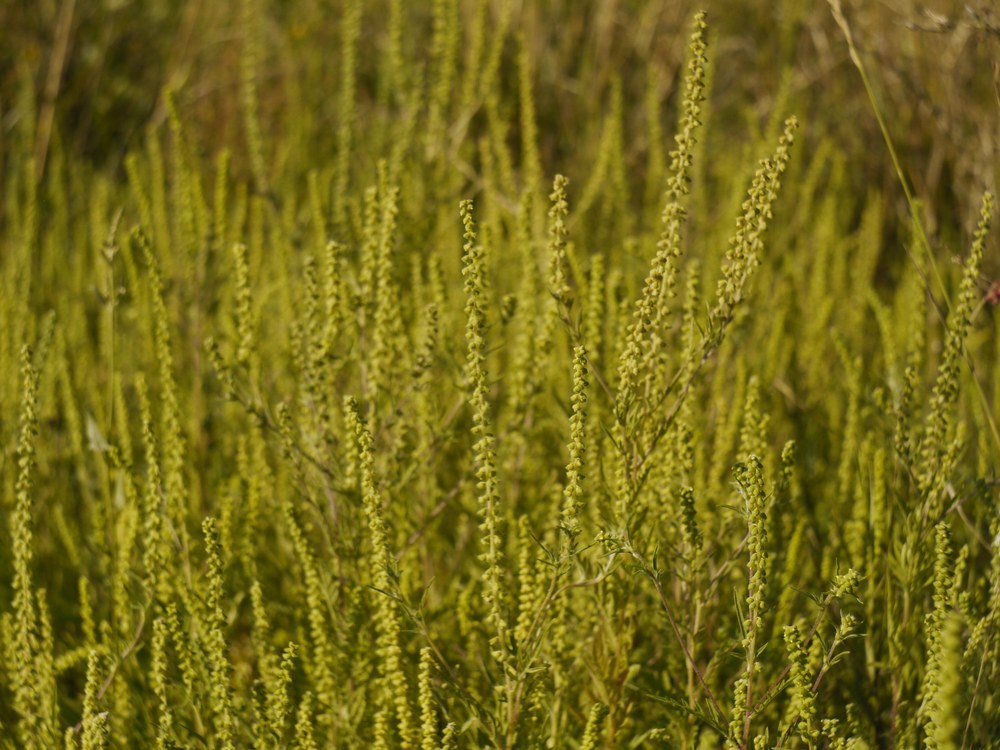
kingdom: Plantae
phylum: Tracheophyta
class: Magnoliopsida
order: Asterales
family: Asteraceae
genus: Ambrosia
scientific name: Ambrosia artemisiifolia
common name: Annual ragweed
